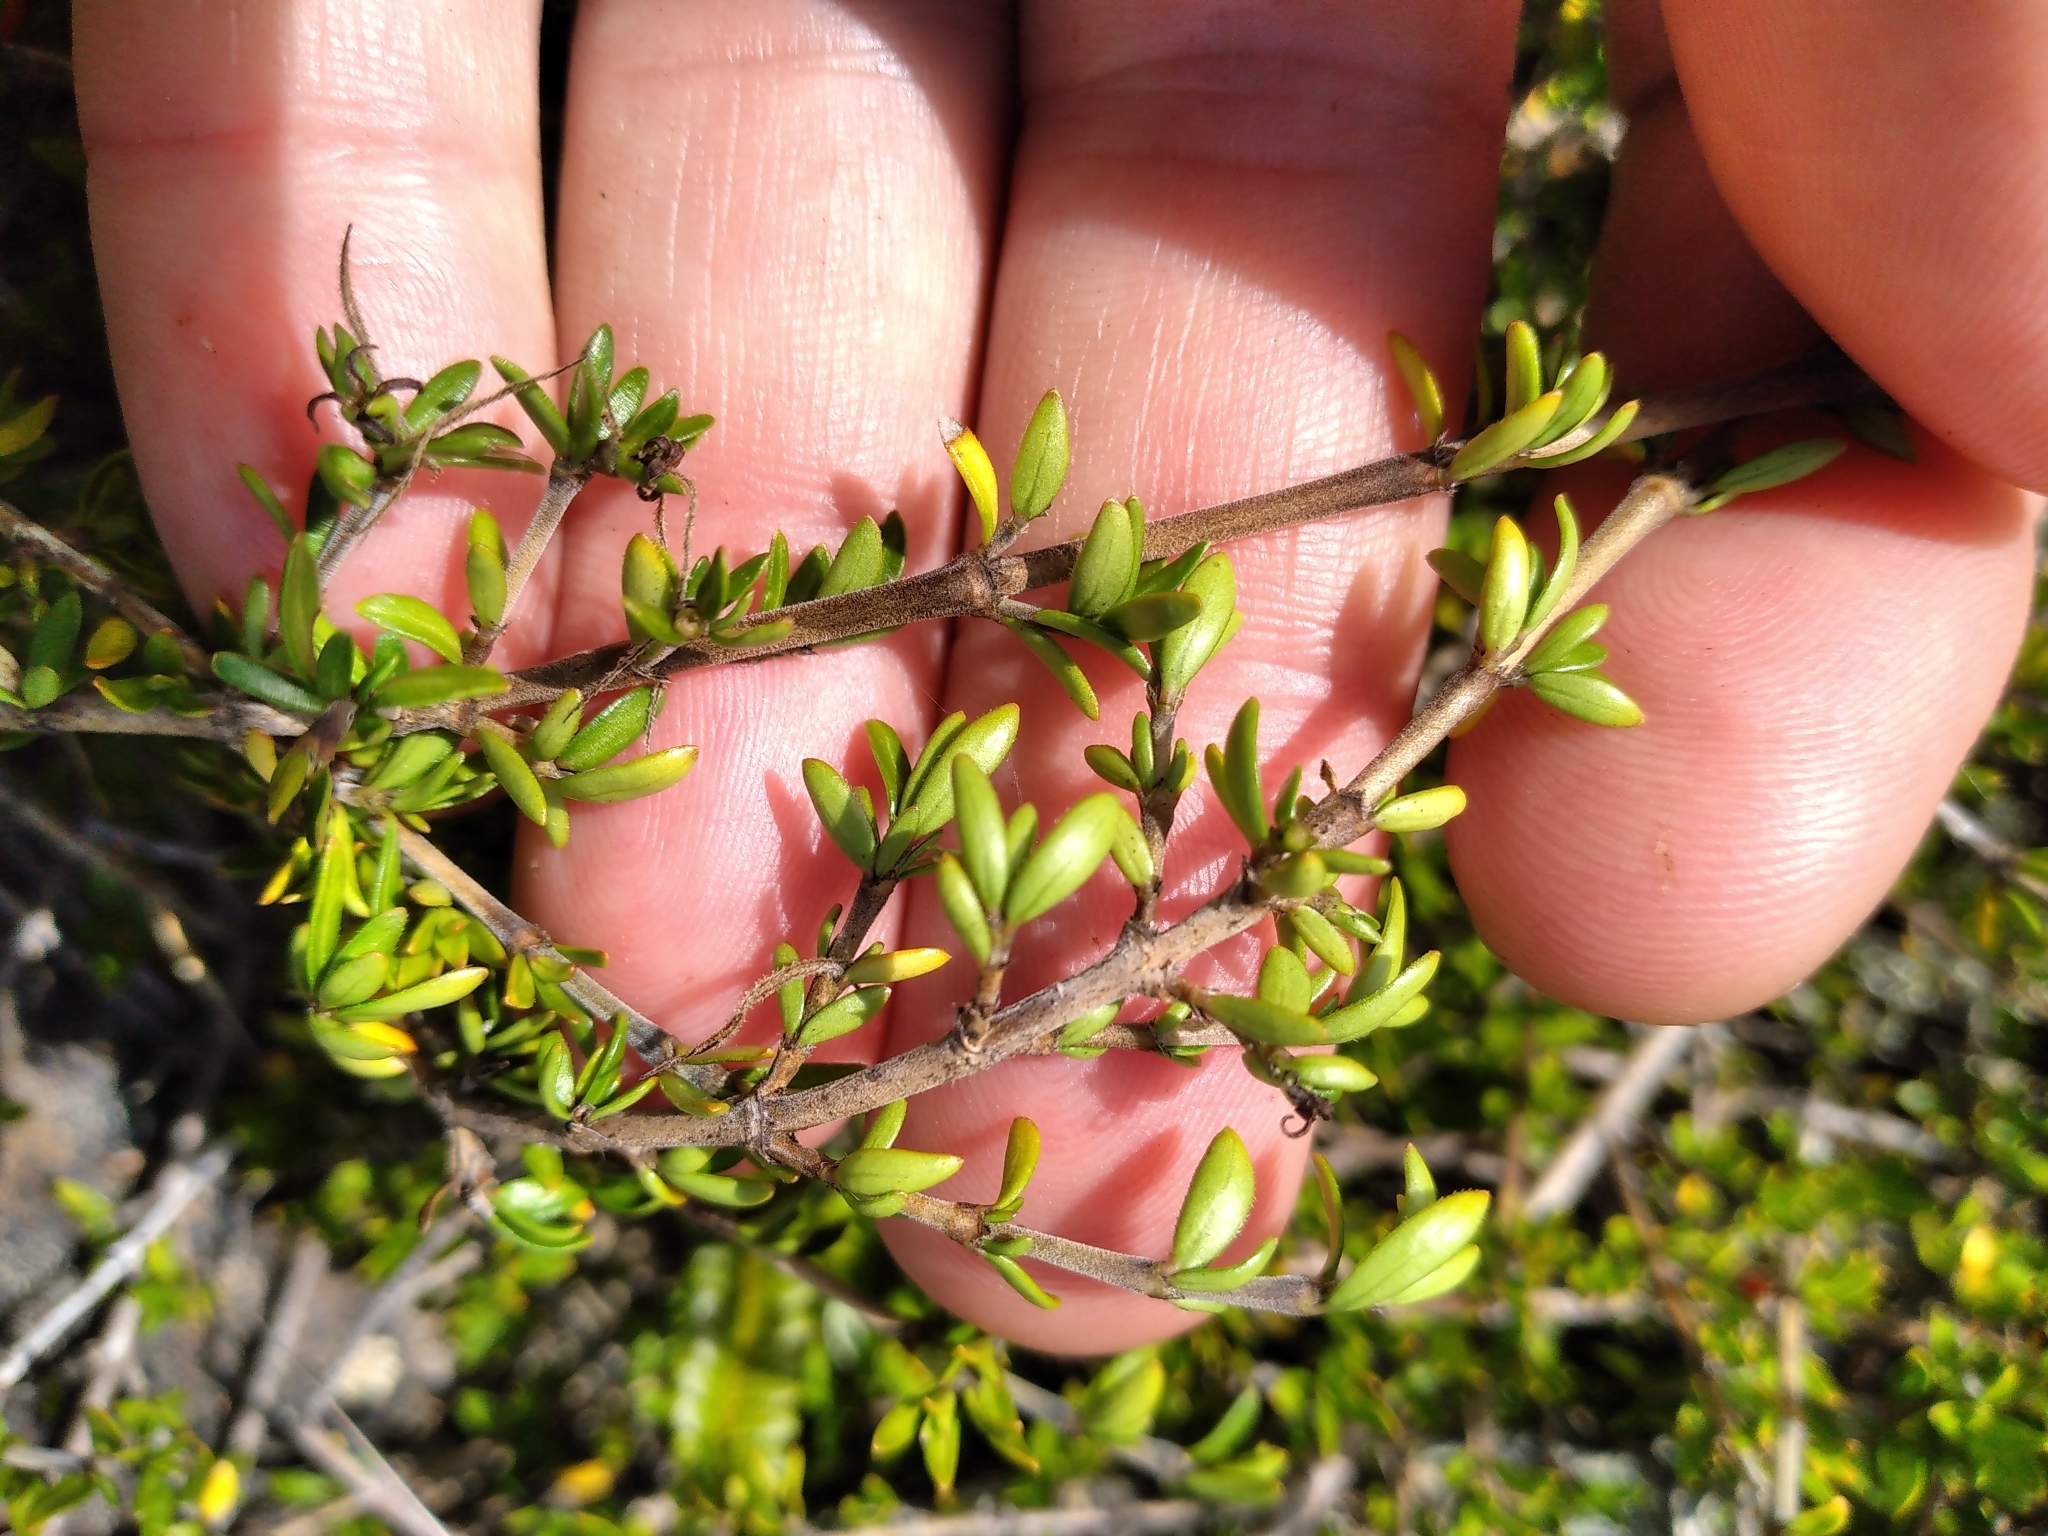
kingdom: Plantae
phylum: Tracheophyta
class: Magnoliopsida
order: Gentianales
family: Rubiaceae
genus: Coprosma
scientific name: Coprosma cheesemanii
